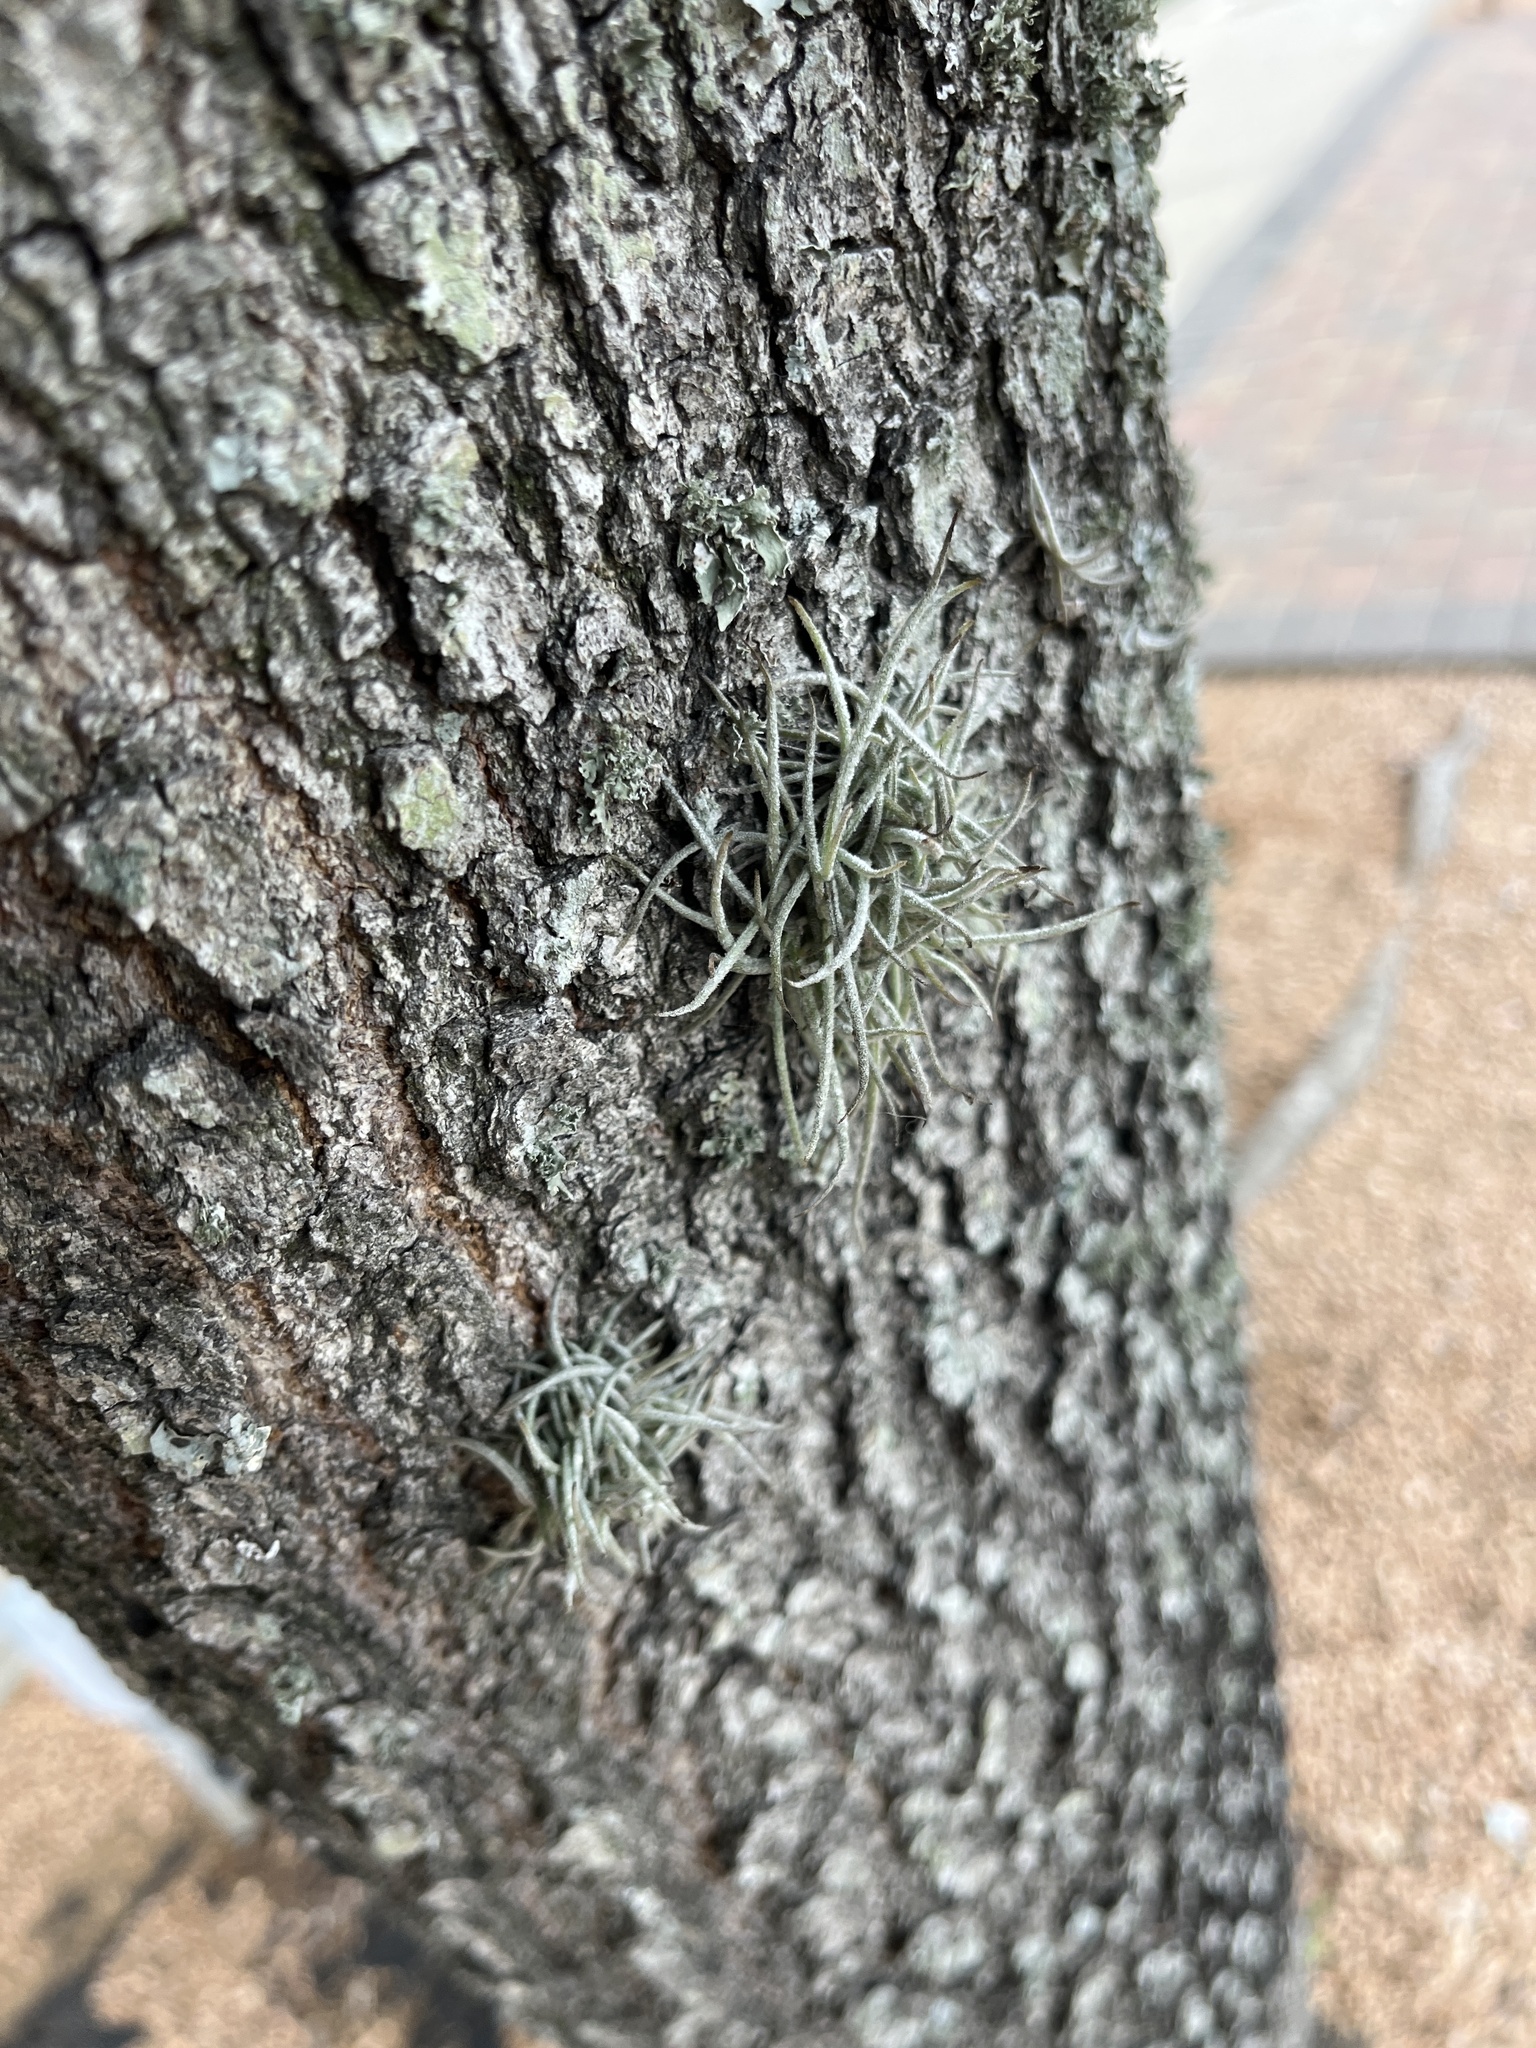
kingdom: Plantae
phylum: Tracheophyta
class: Liliopsida
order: Poales
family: Bromeliaceae
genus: Tillandsia
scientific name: Tillandsia recurvata
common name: Small ballmoss
